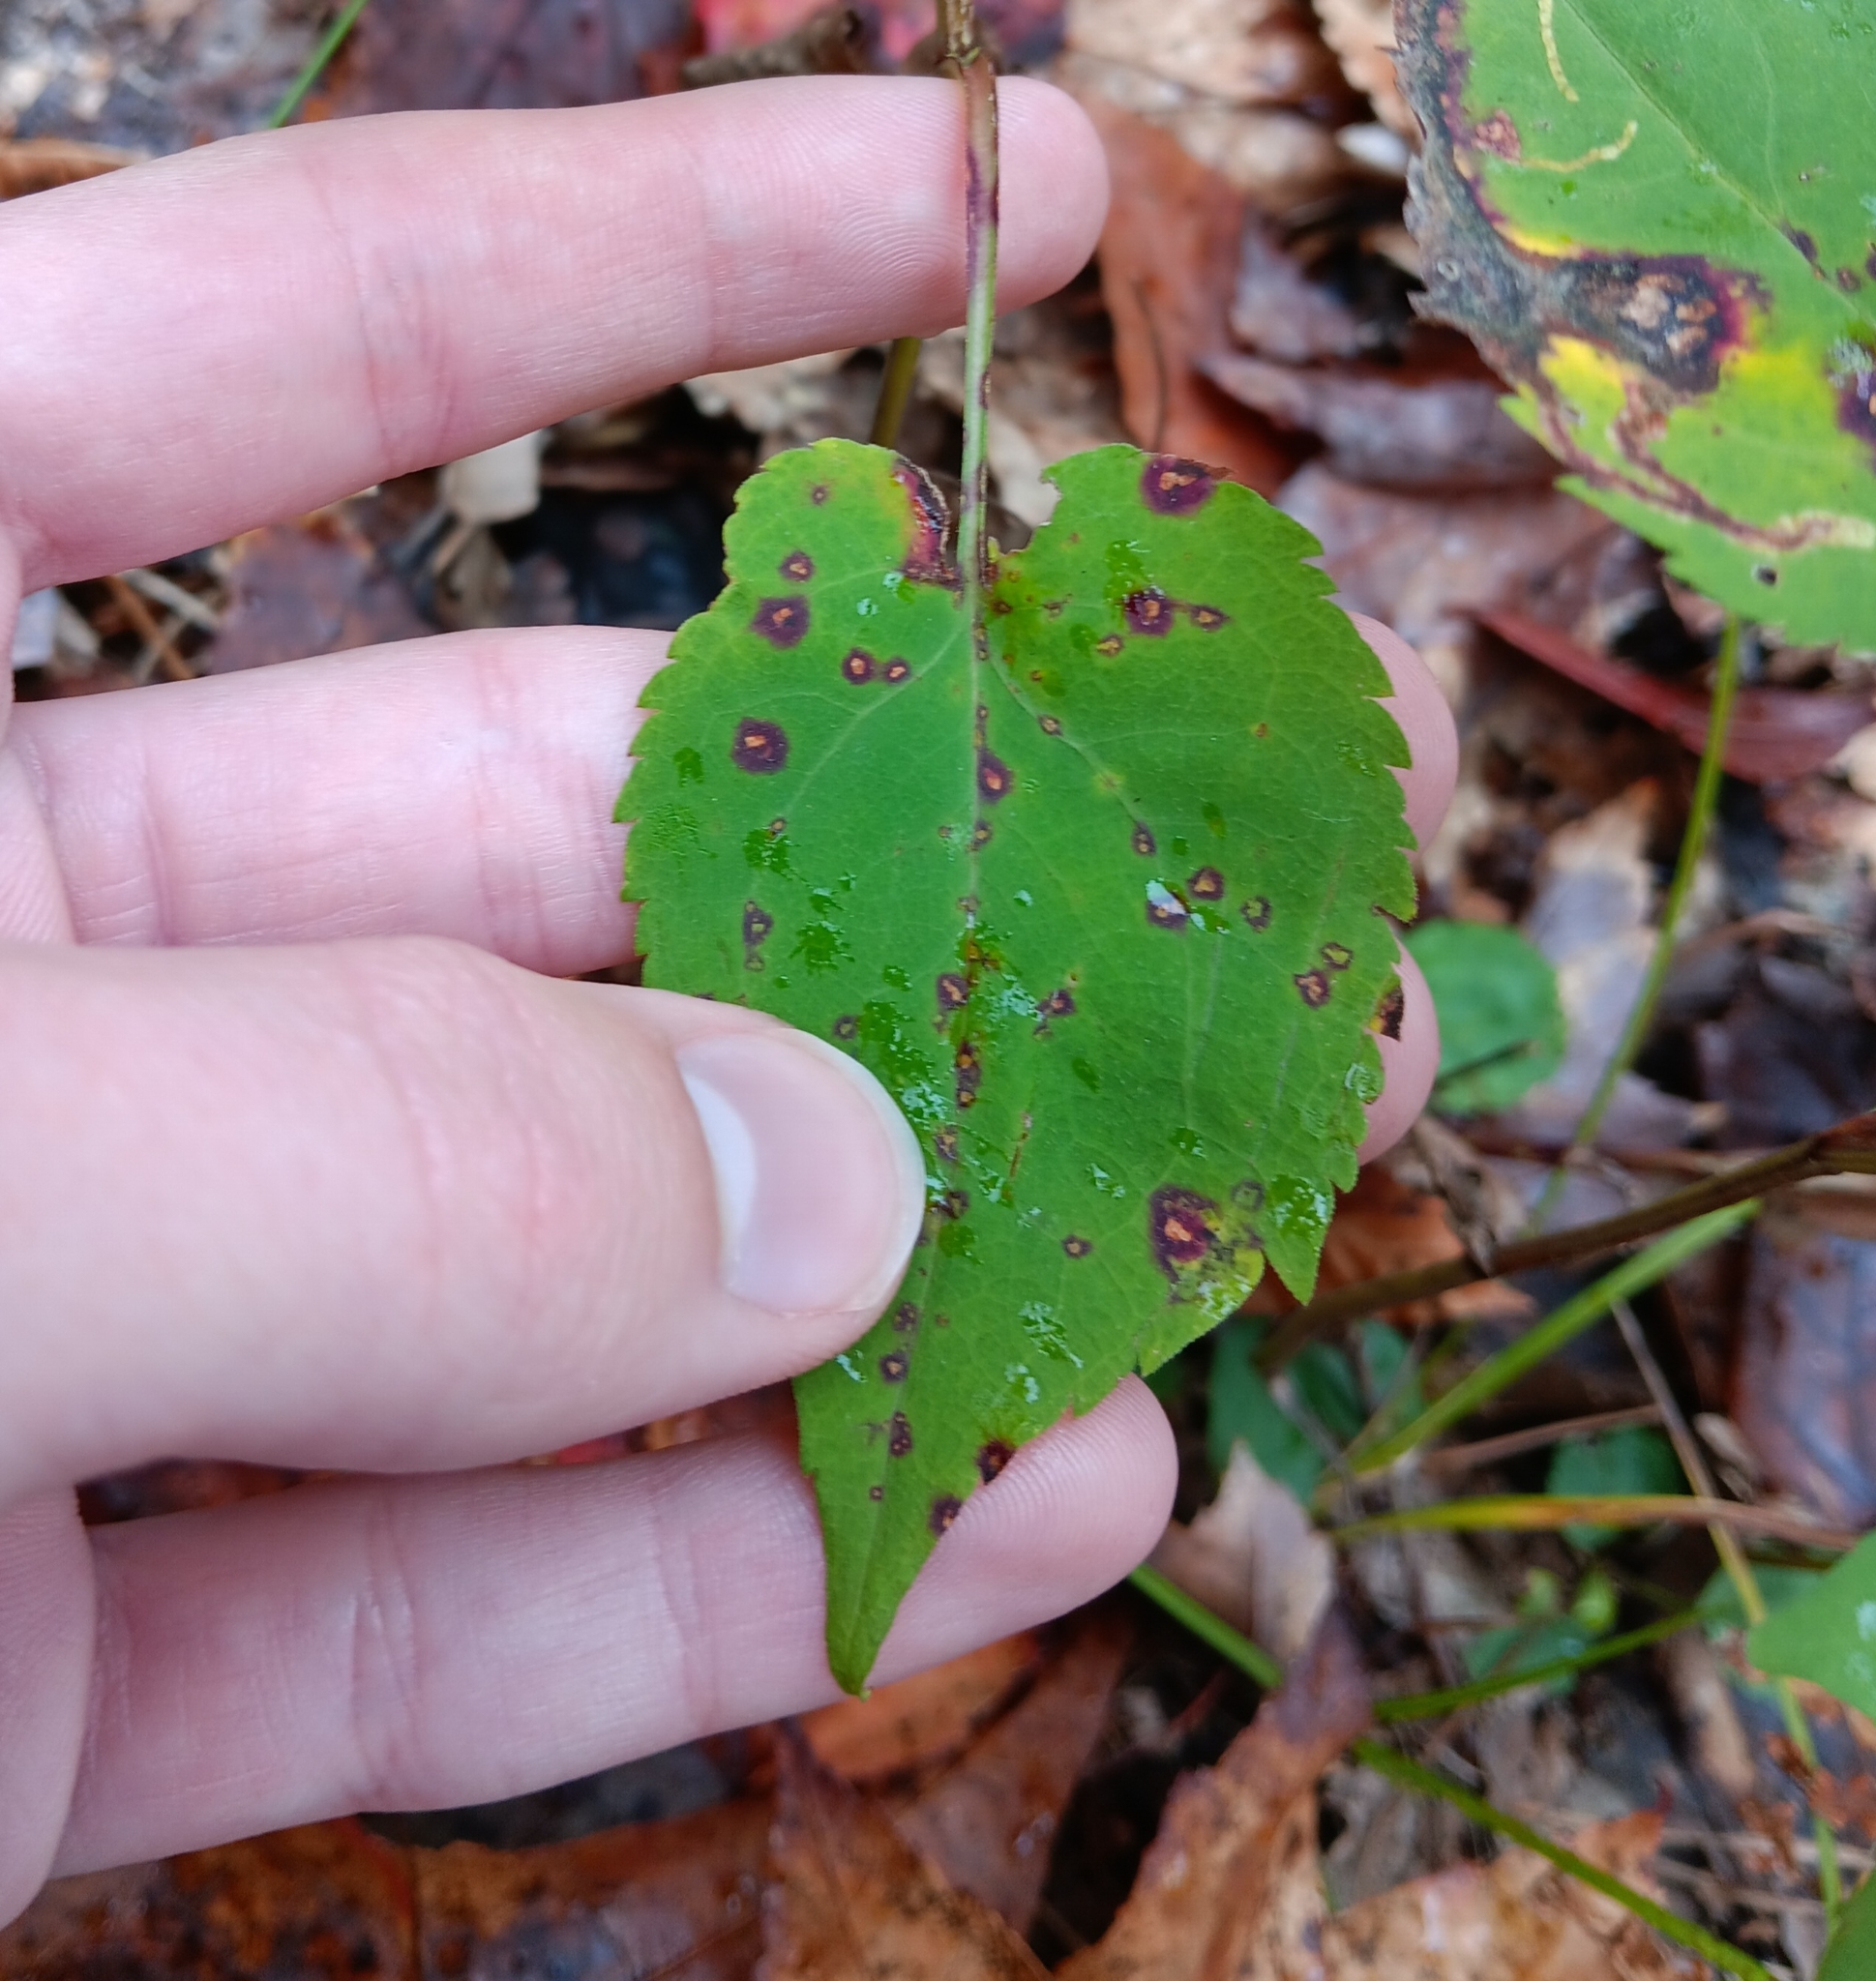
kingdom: Plantae
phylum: Tracheophyta
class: Magnoliopsida
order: Asterales
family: Asteraceae
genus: Symphyotrichum
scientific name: Symphyotrichum cordifolium
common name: Beeweed
